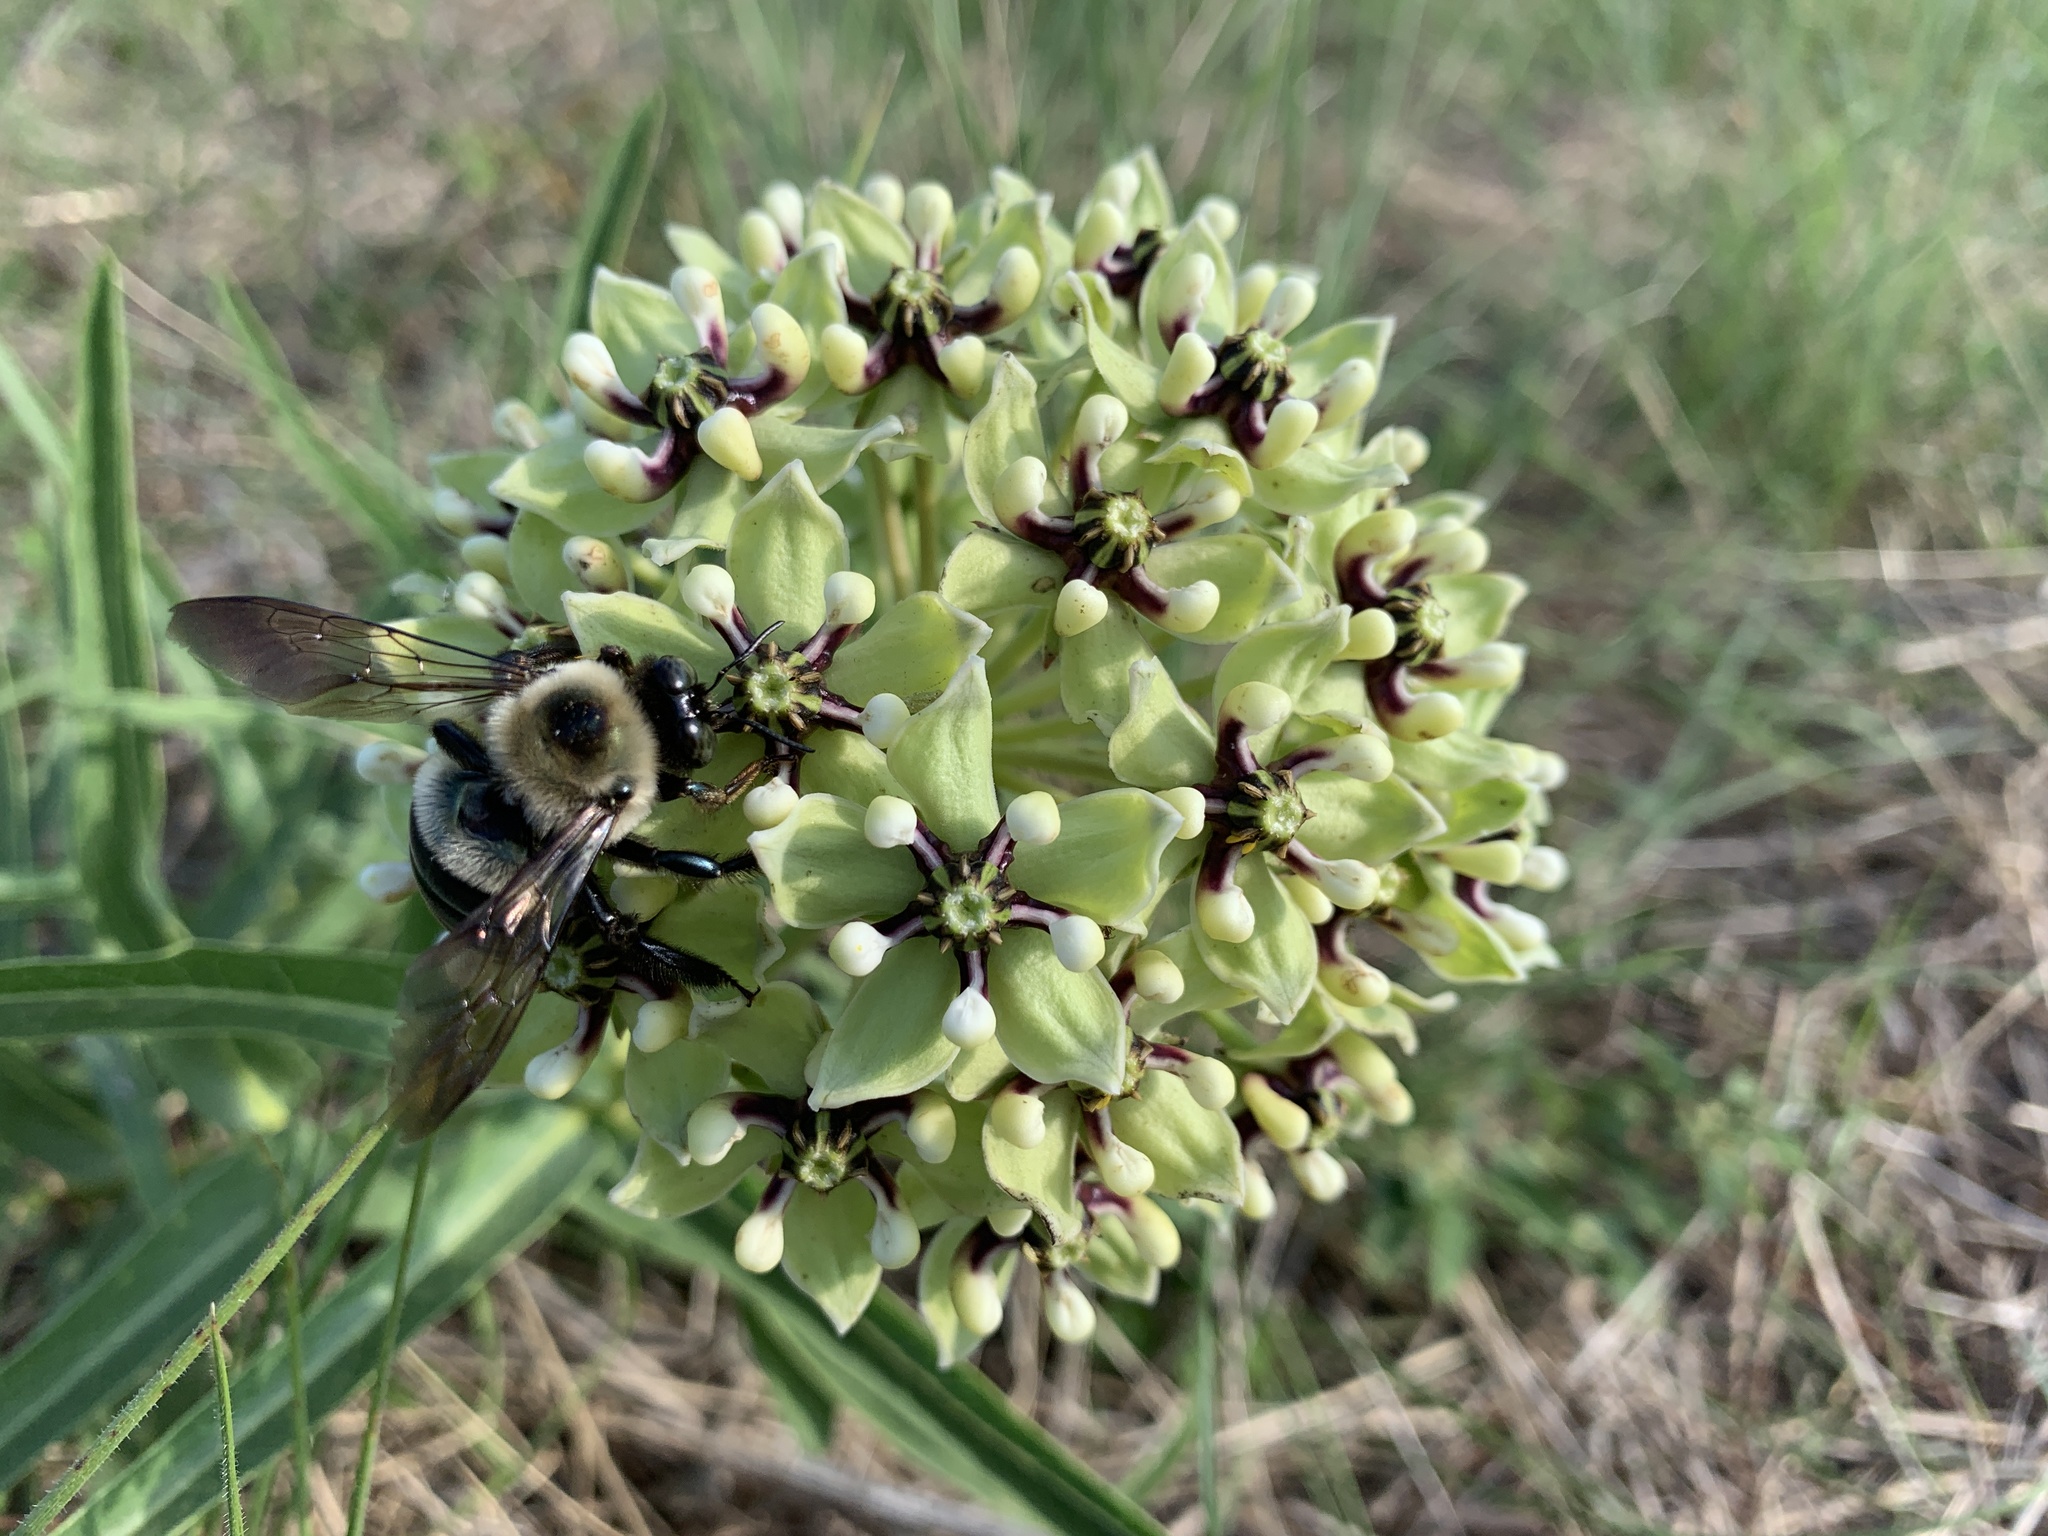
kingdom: Plantae
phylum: Tracheophyta
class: Magnoliopsida
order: Gentianales
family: Apocynaceae
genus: Asclepias
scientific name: Asclepias asperula
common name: Antelope horns
